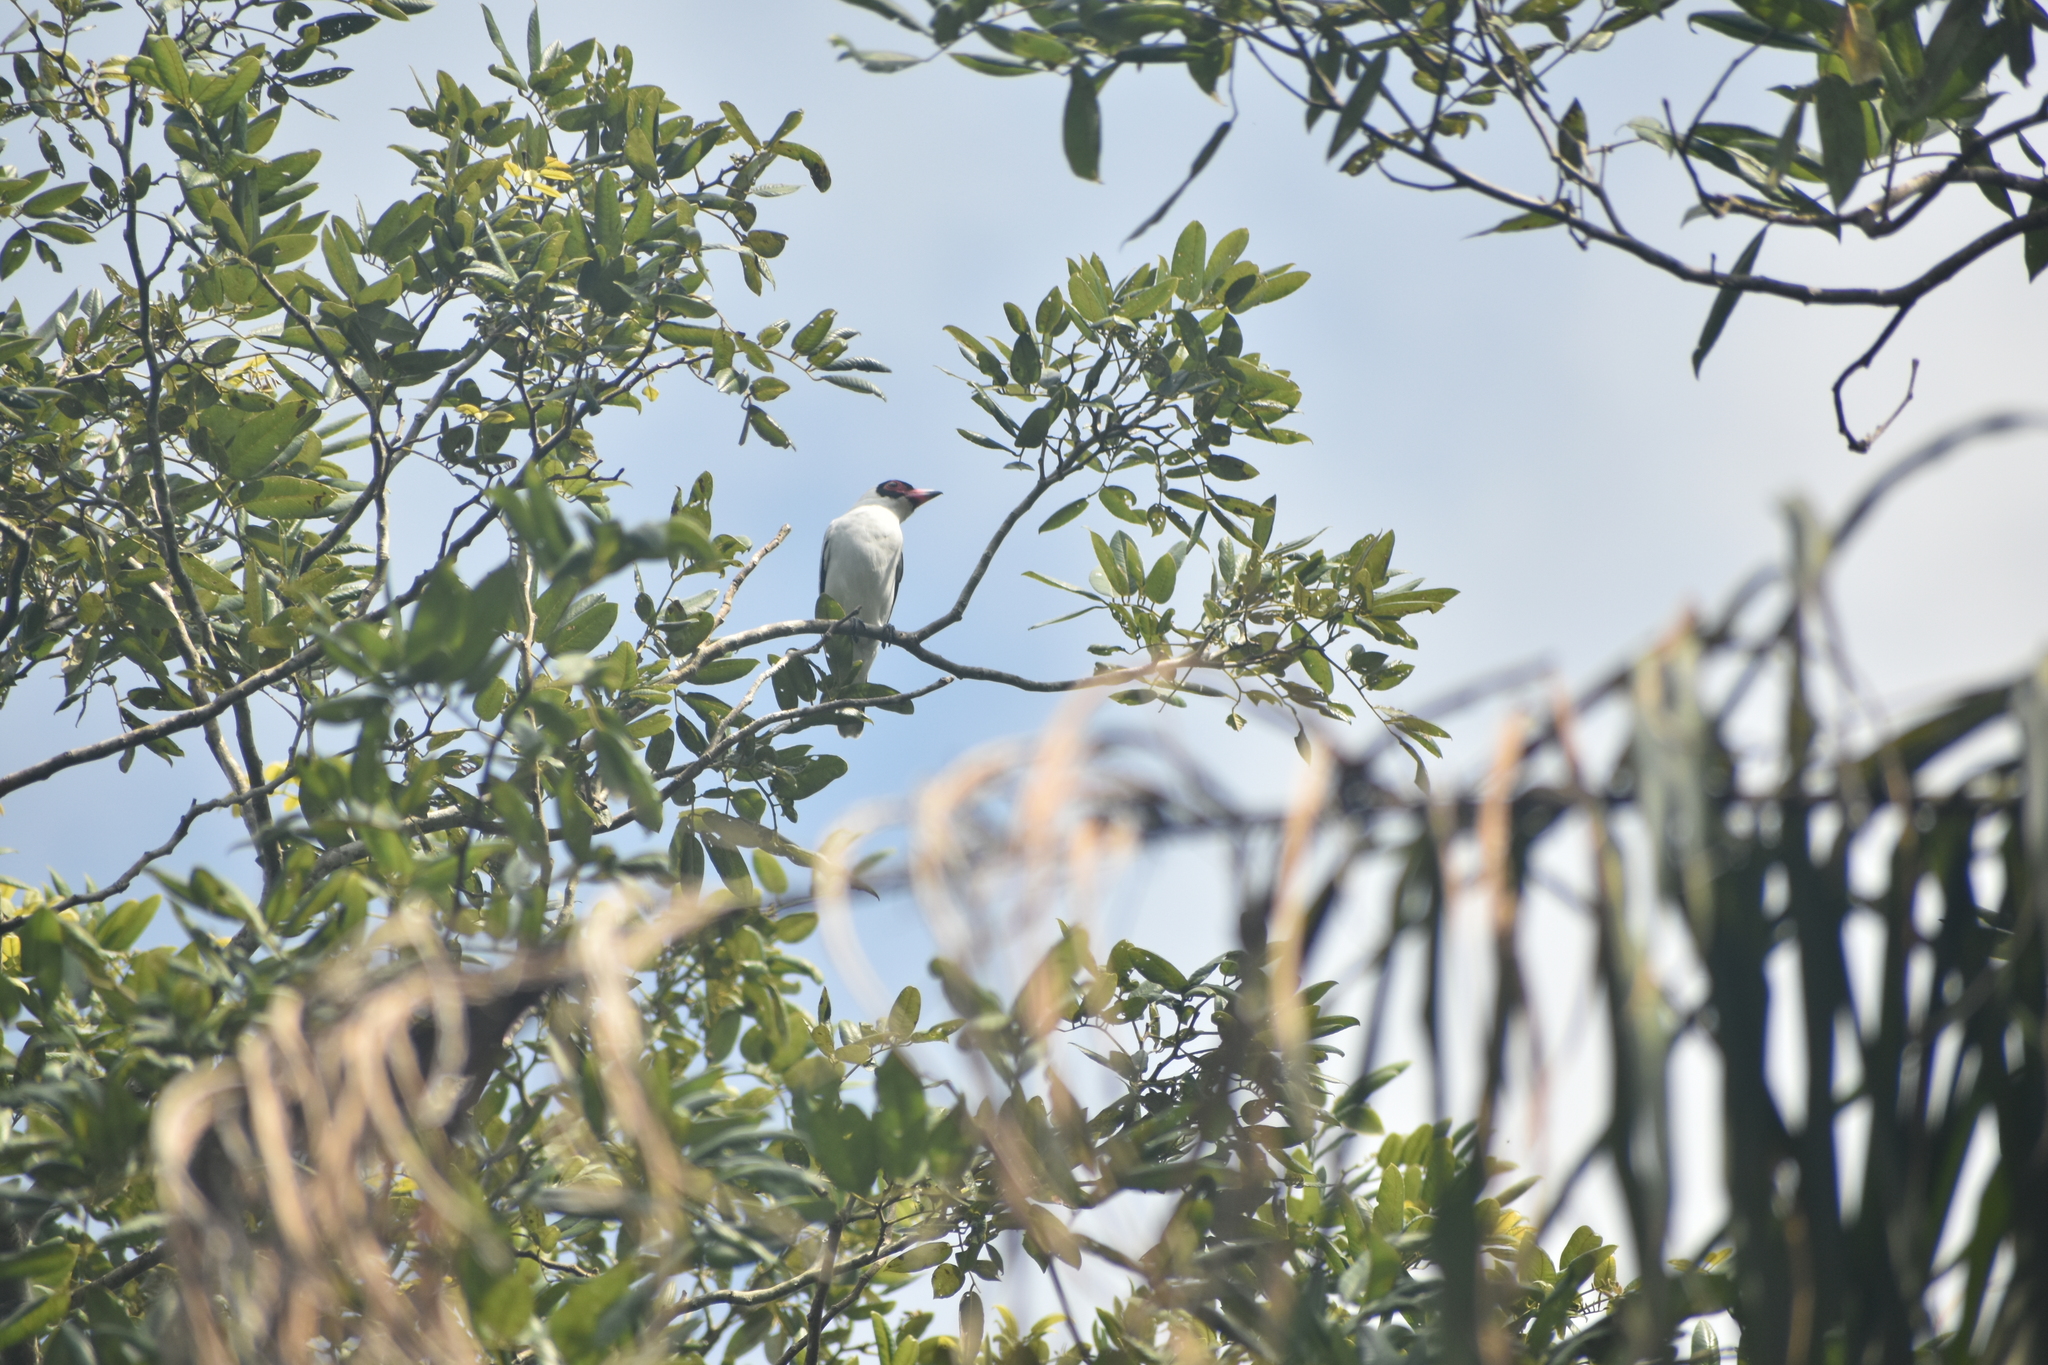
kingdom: Animalia
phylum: Chordata
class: Aves
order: Passeriformes
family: Cotingidae
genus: Tityra
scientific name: Tityra semifasciata
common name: Masked tityra
